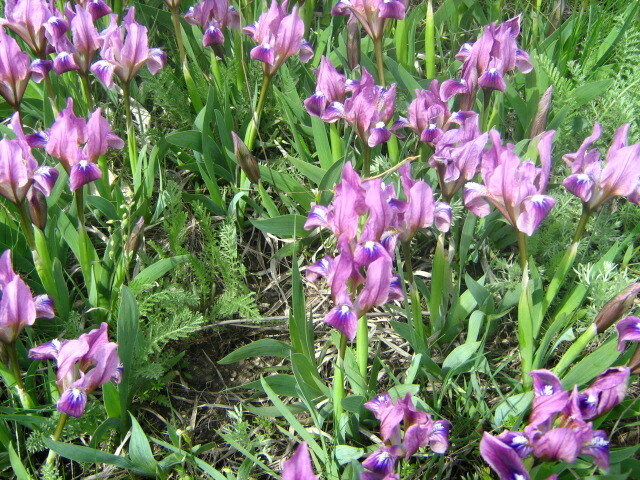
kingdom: Plantae
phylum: Tracheophyta
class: Liliopsida
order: Asparagales
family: Iridaceae
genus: Iris
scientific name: Iris pumila
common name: Dwarf iris
